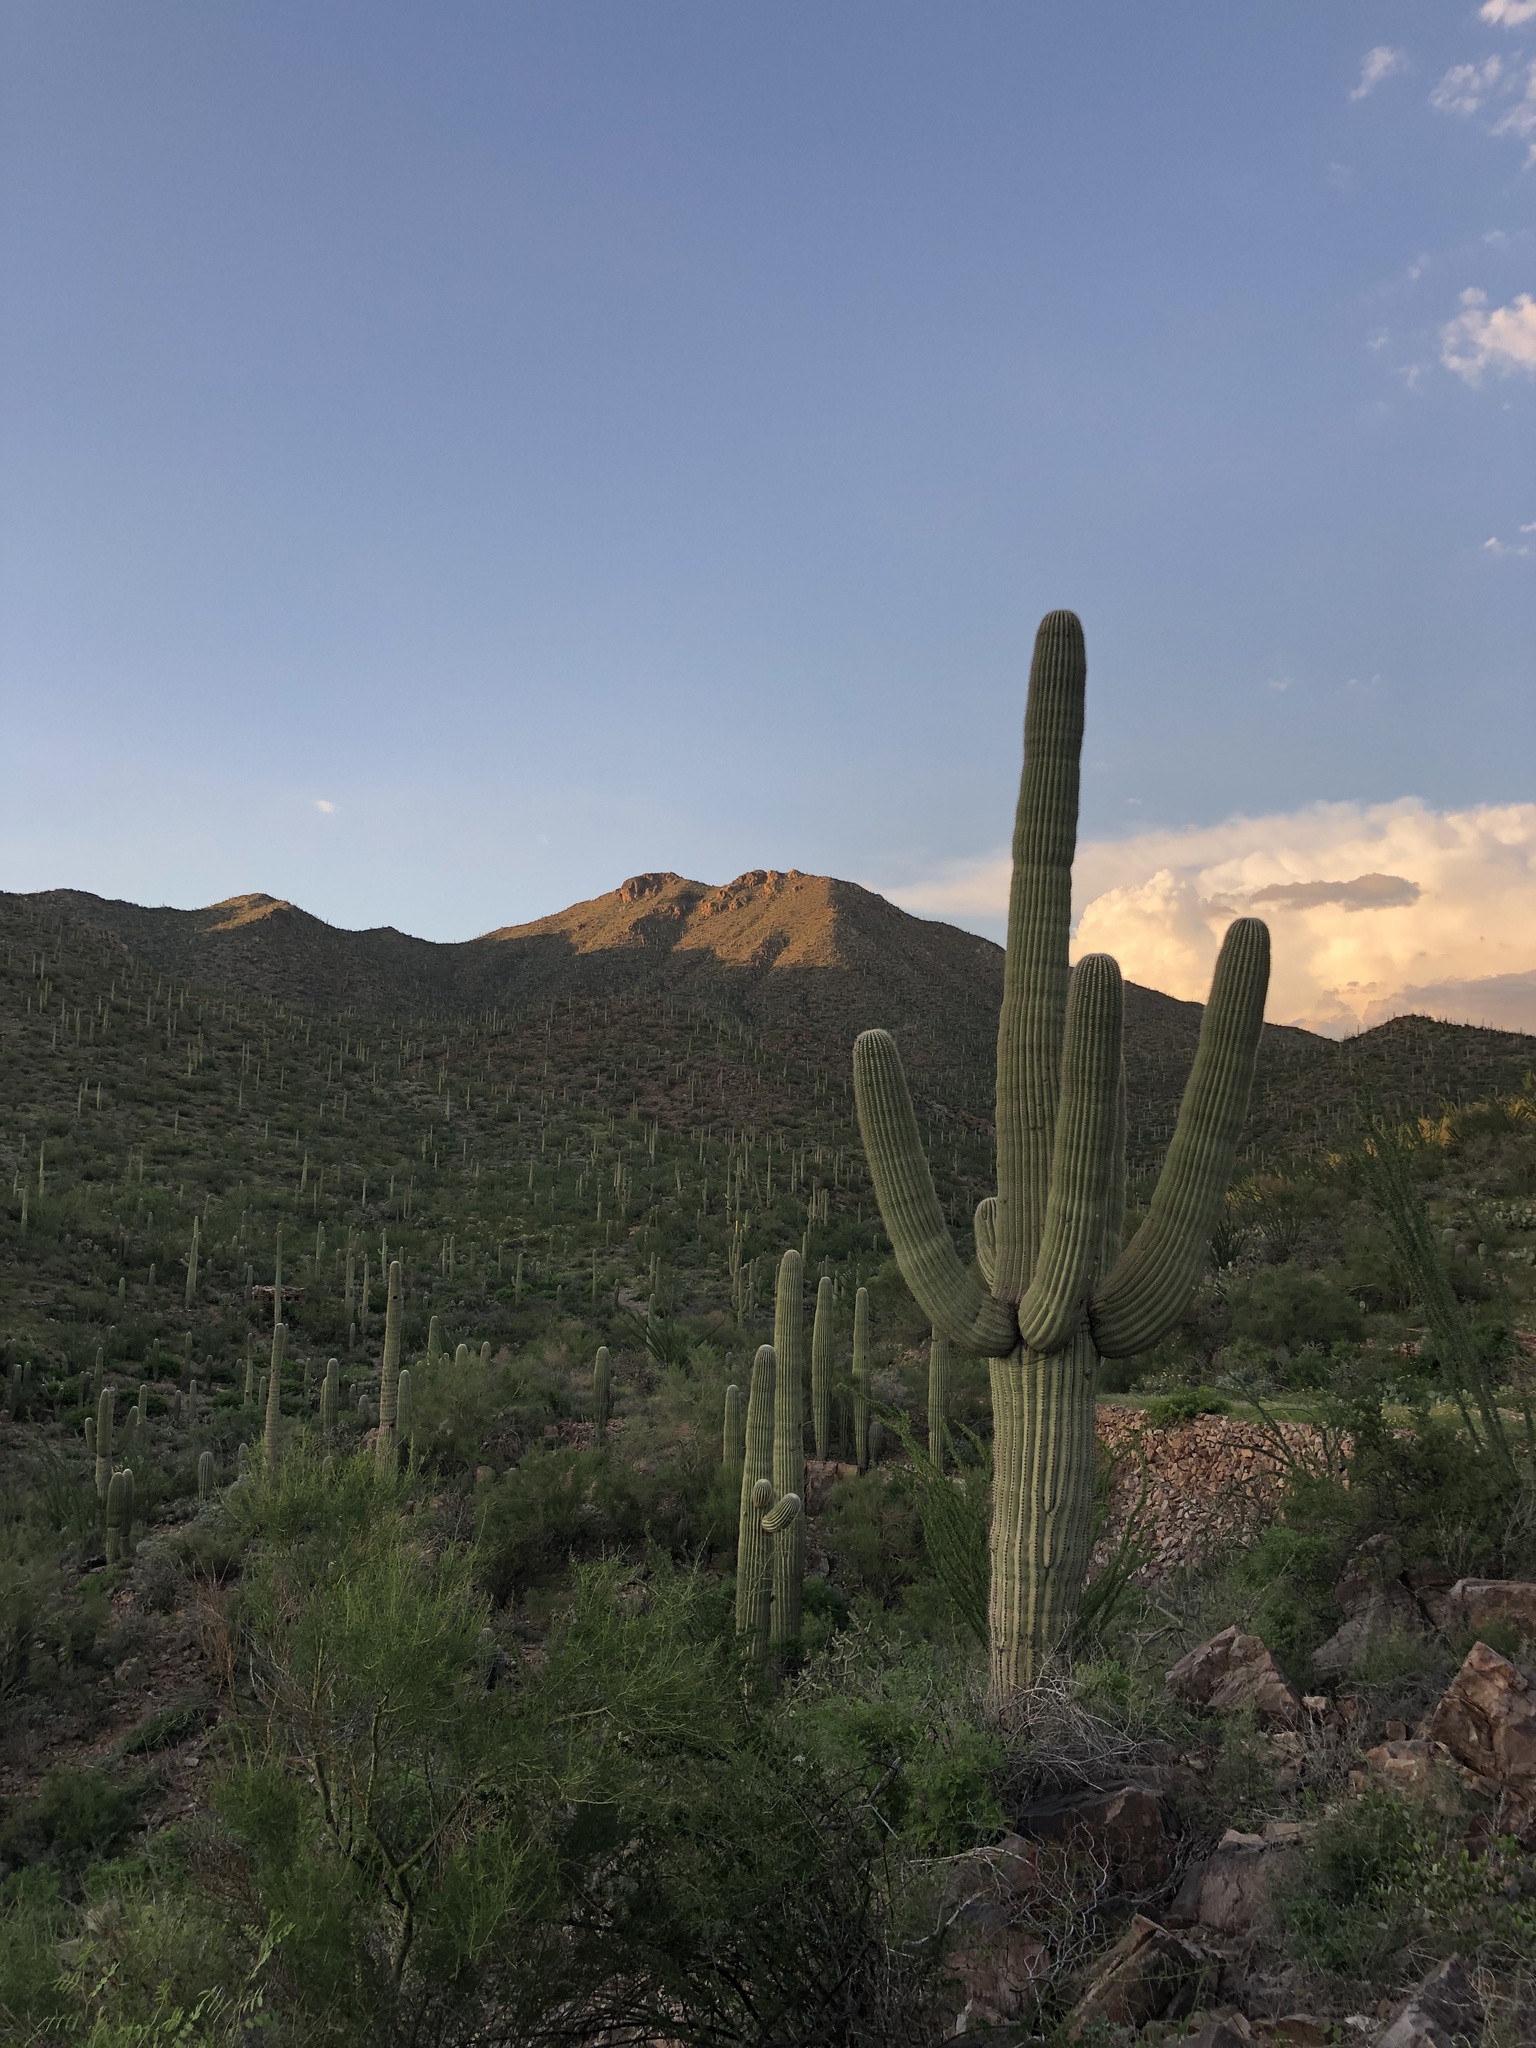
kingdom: Plantae
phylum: Tracheophyta
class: Magnoliopsida
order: Caryophyllales
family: Cactaceae
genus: Carnegiea
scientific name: Carnegiea gigantea
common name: Saguaro
